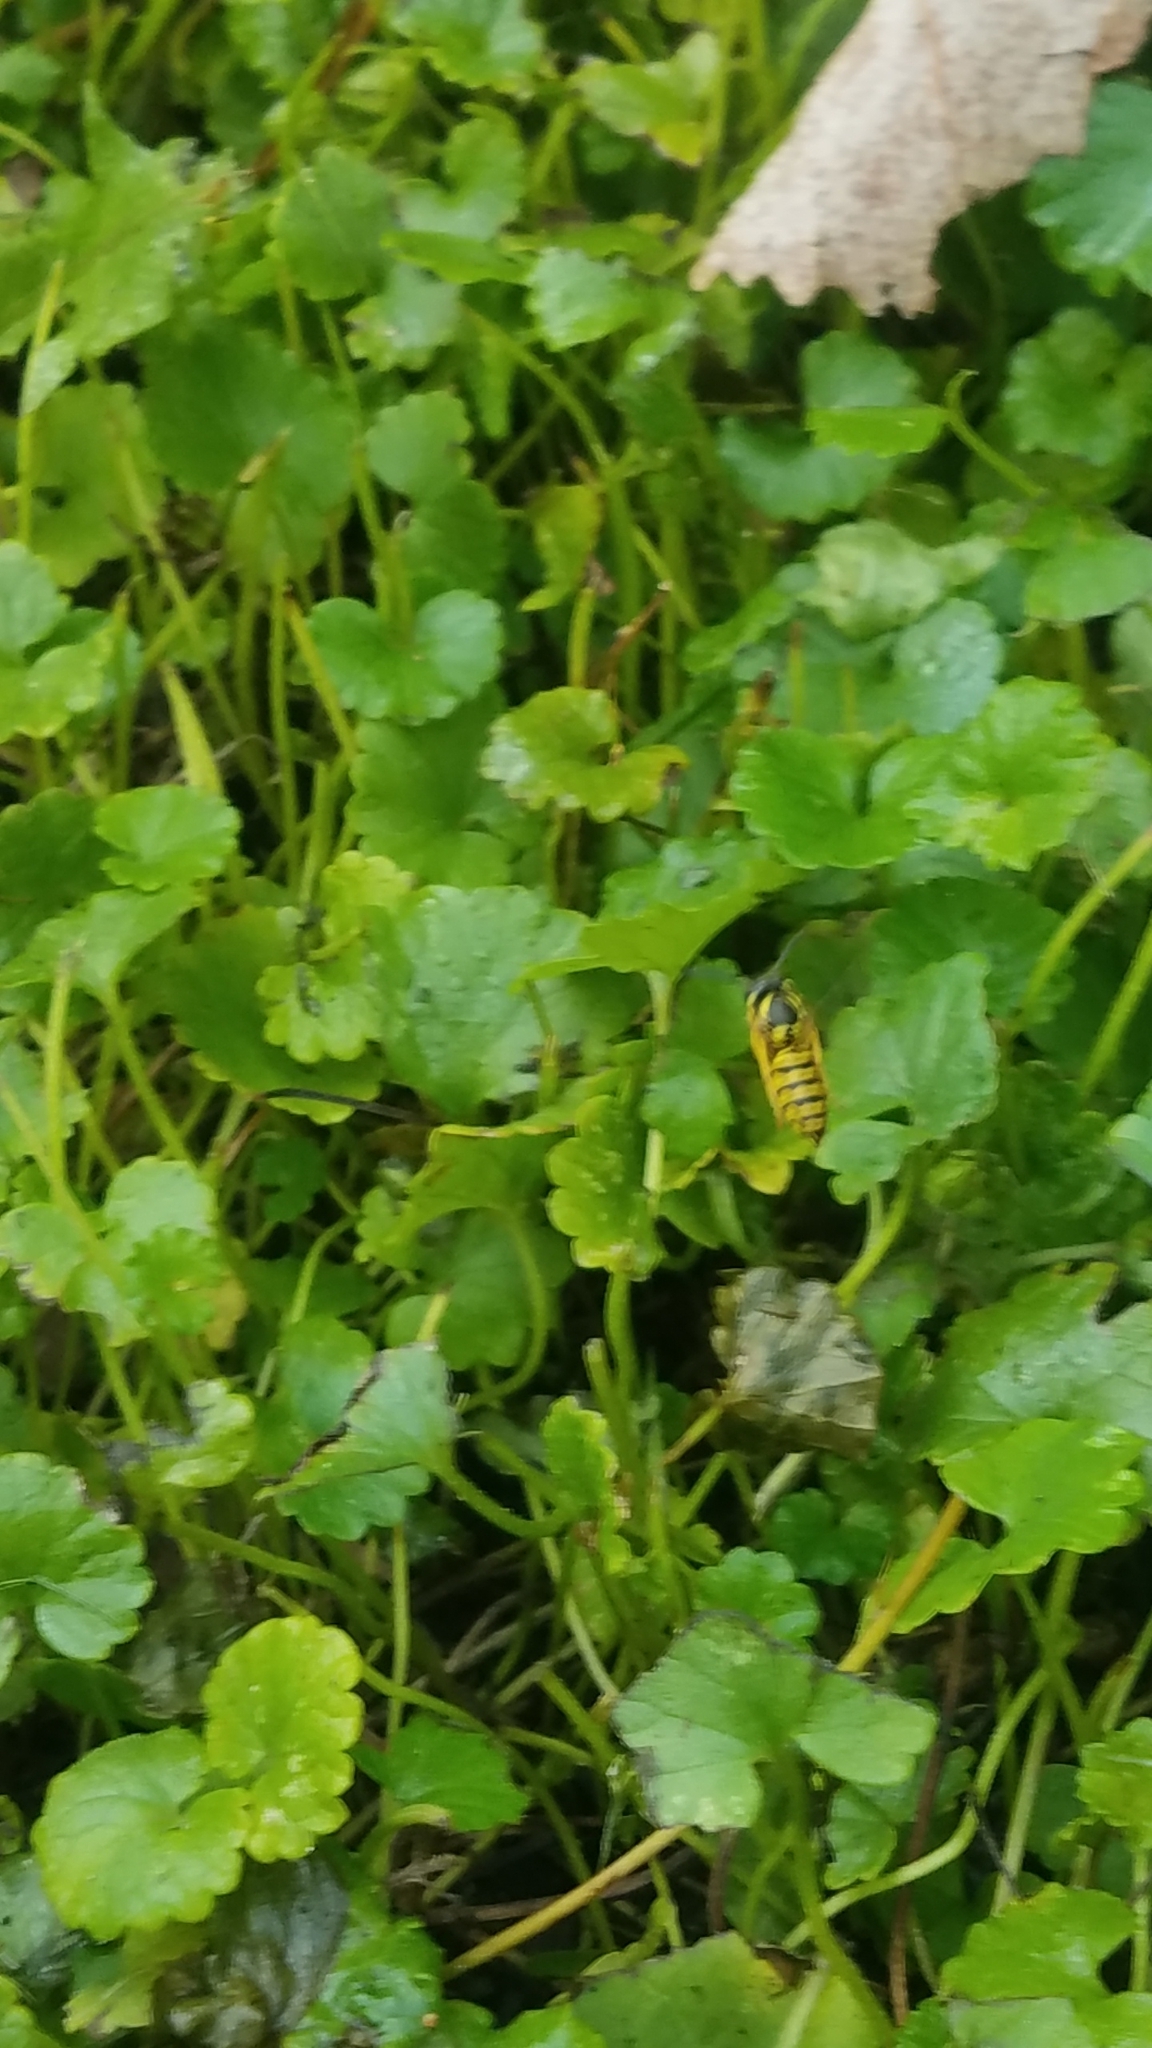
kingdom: Animalia
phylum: Arthropoda
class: Insecta
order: Hymenoptera
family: Vespidae
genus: Vespula
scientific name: Vespula
